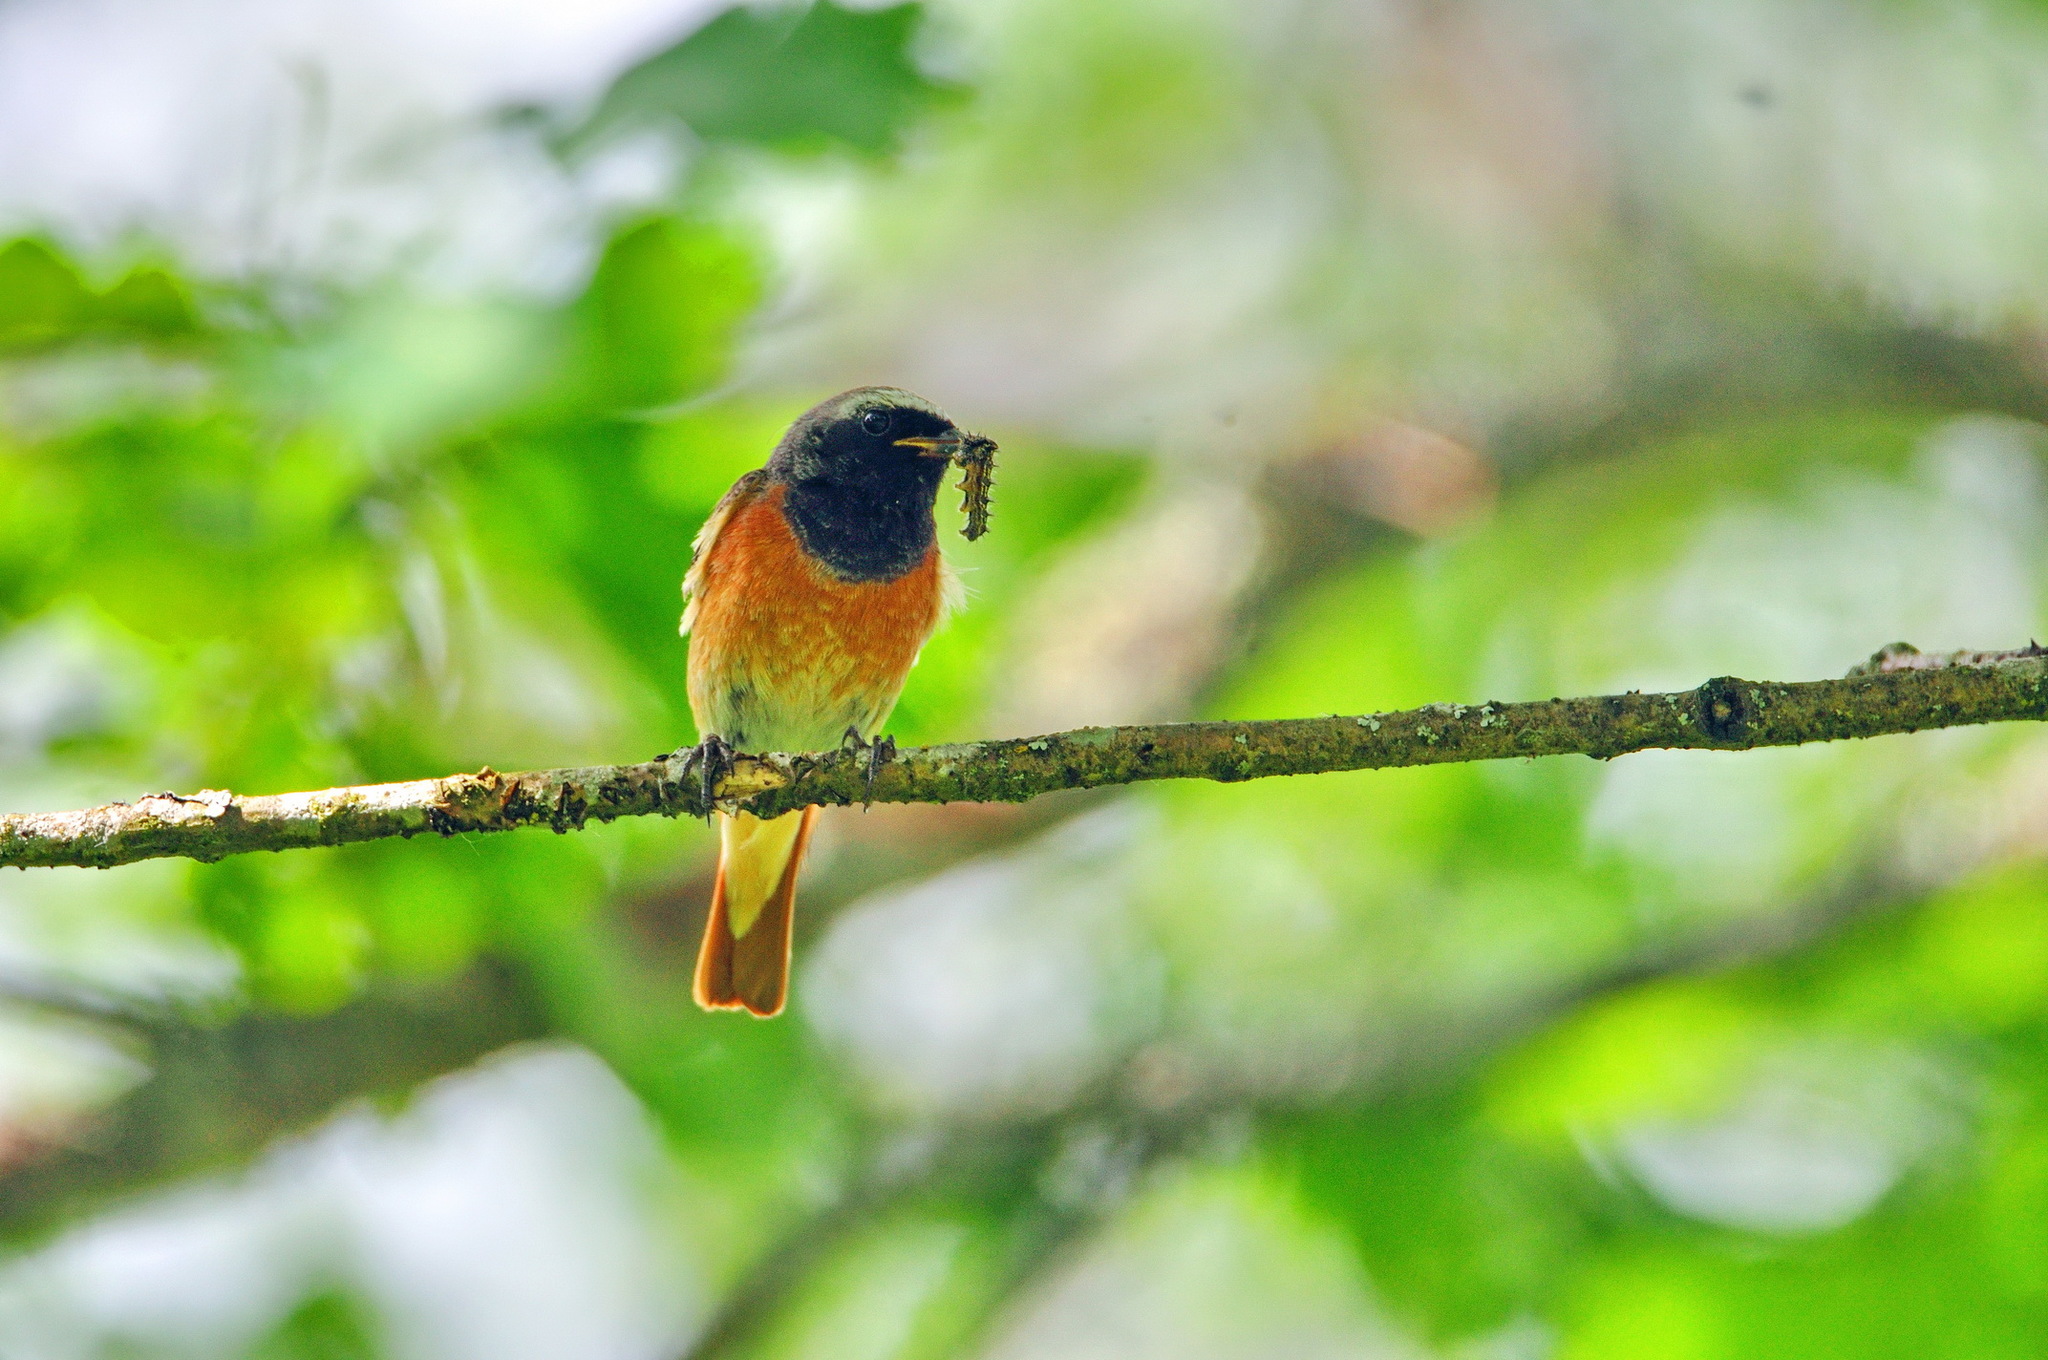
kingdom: Animalia
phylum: Chordata
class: Aves
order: Passeriformes
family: Muscicapidae
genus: Phoenicurus
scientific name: Phoenicurus phoenicurus
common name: Common redstart
